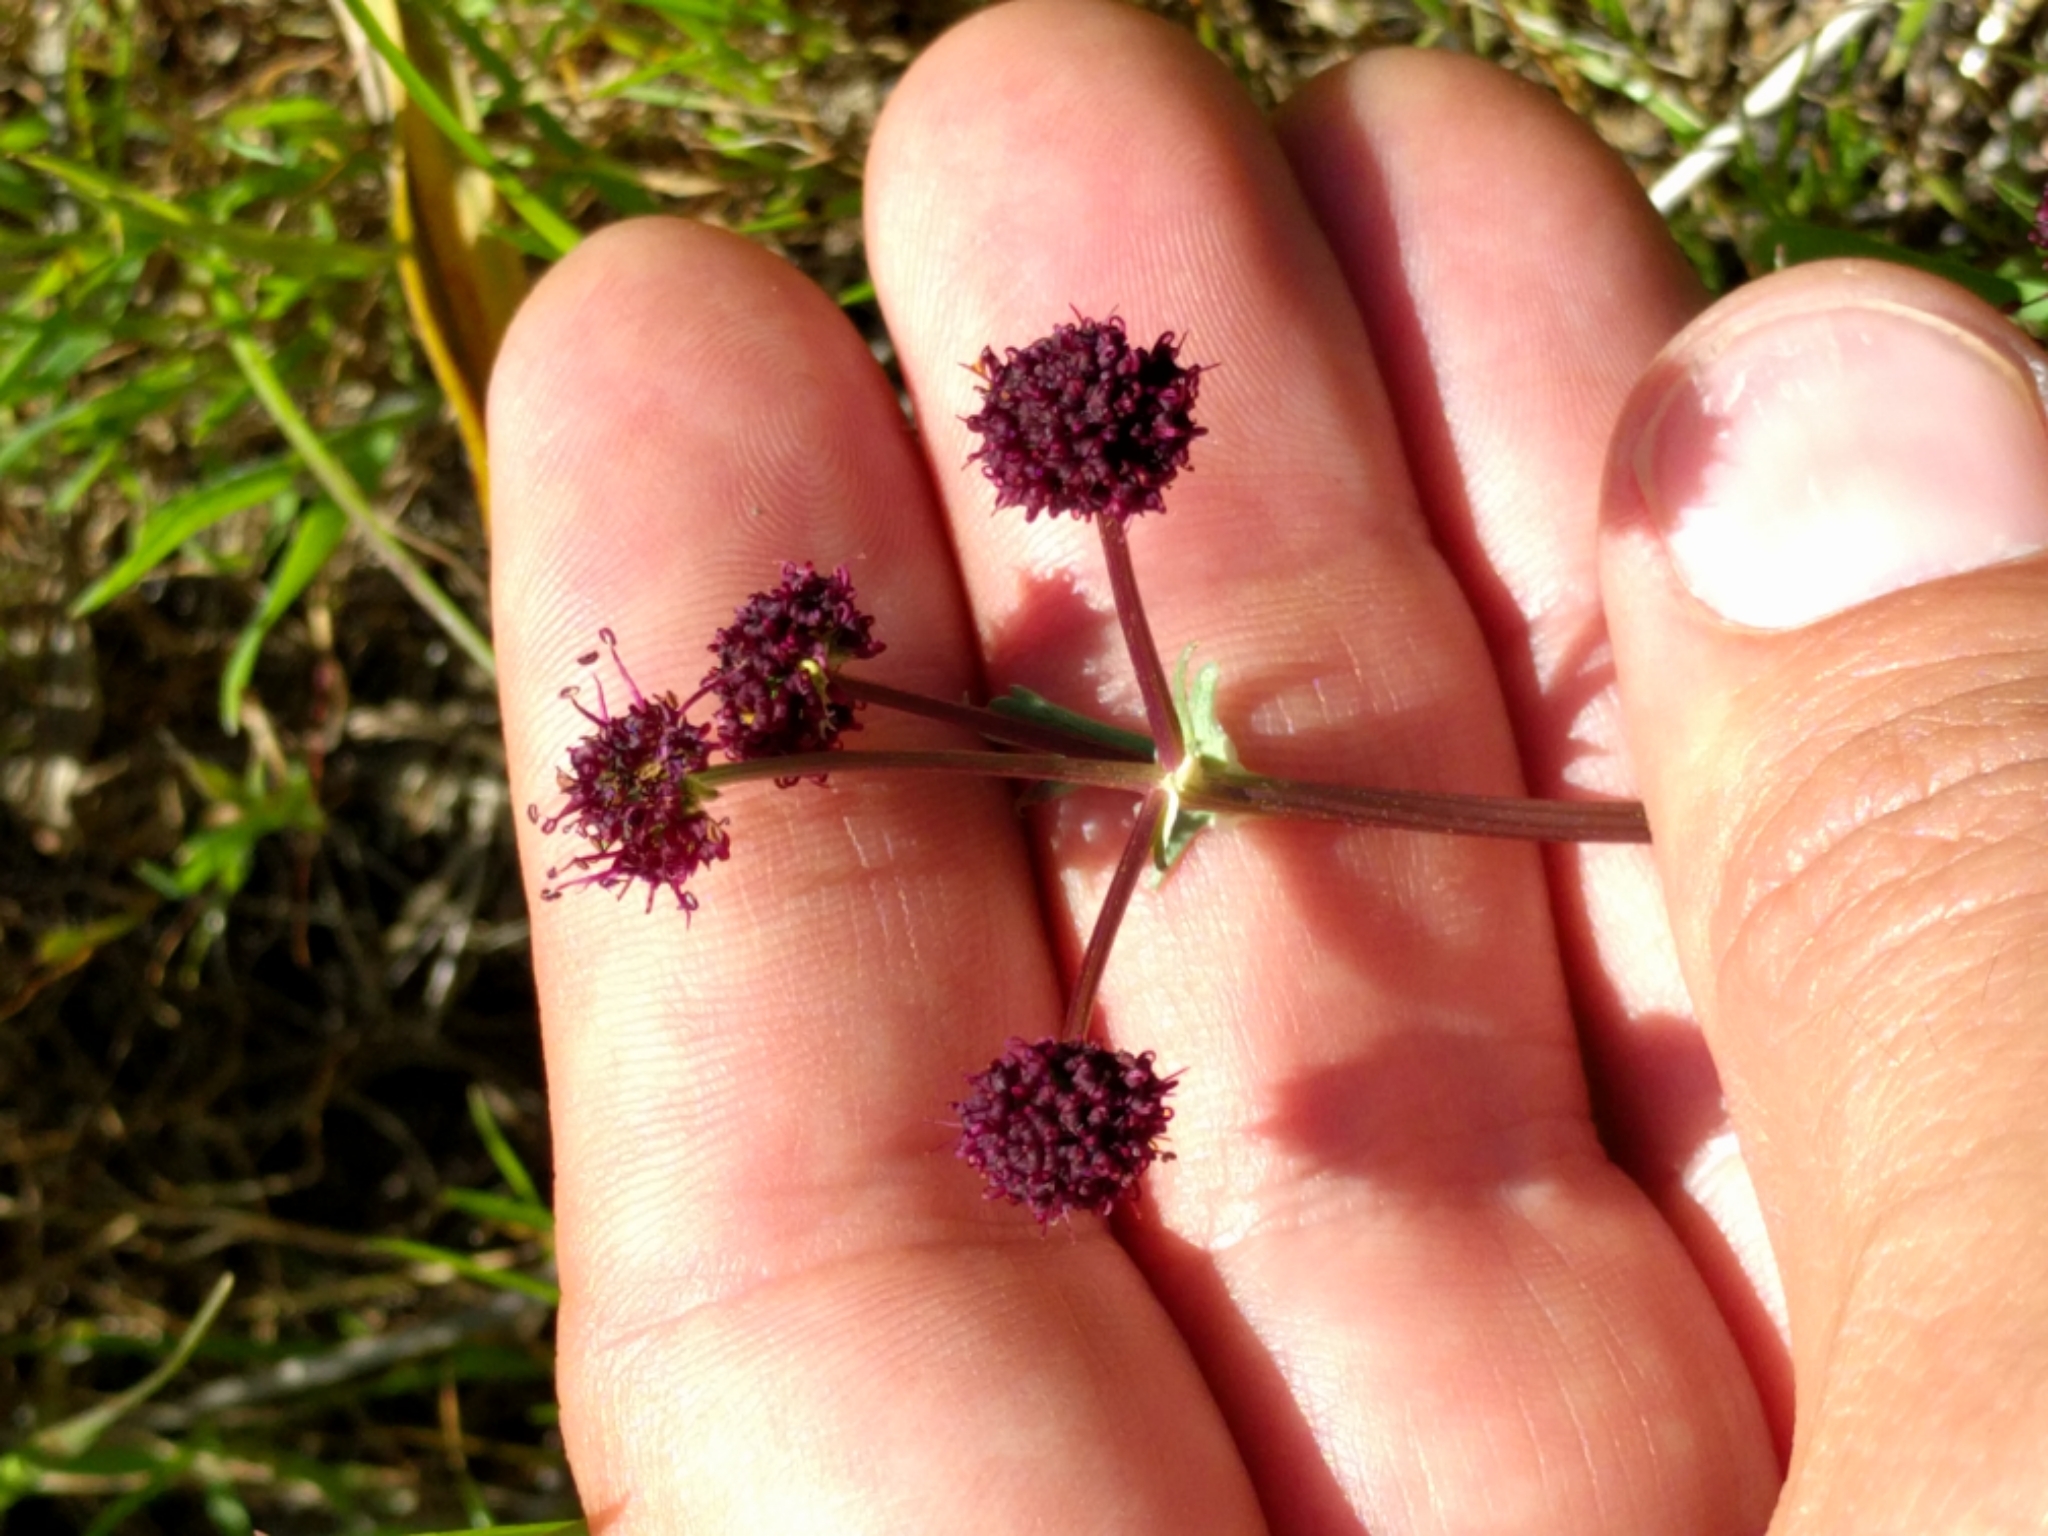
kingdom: Plantae
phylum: Tracheophyta
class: Magnoliopsida
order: Apiales
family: Apiaceae
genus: Sanicula
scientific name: Sanicula bipinnatifida
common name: Shoe-buttons
